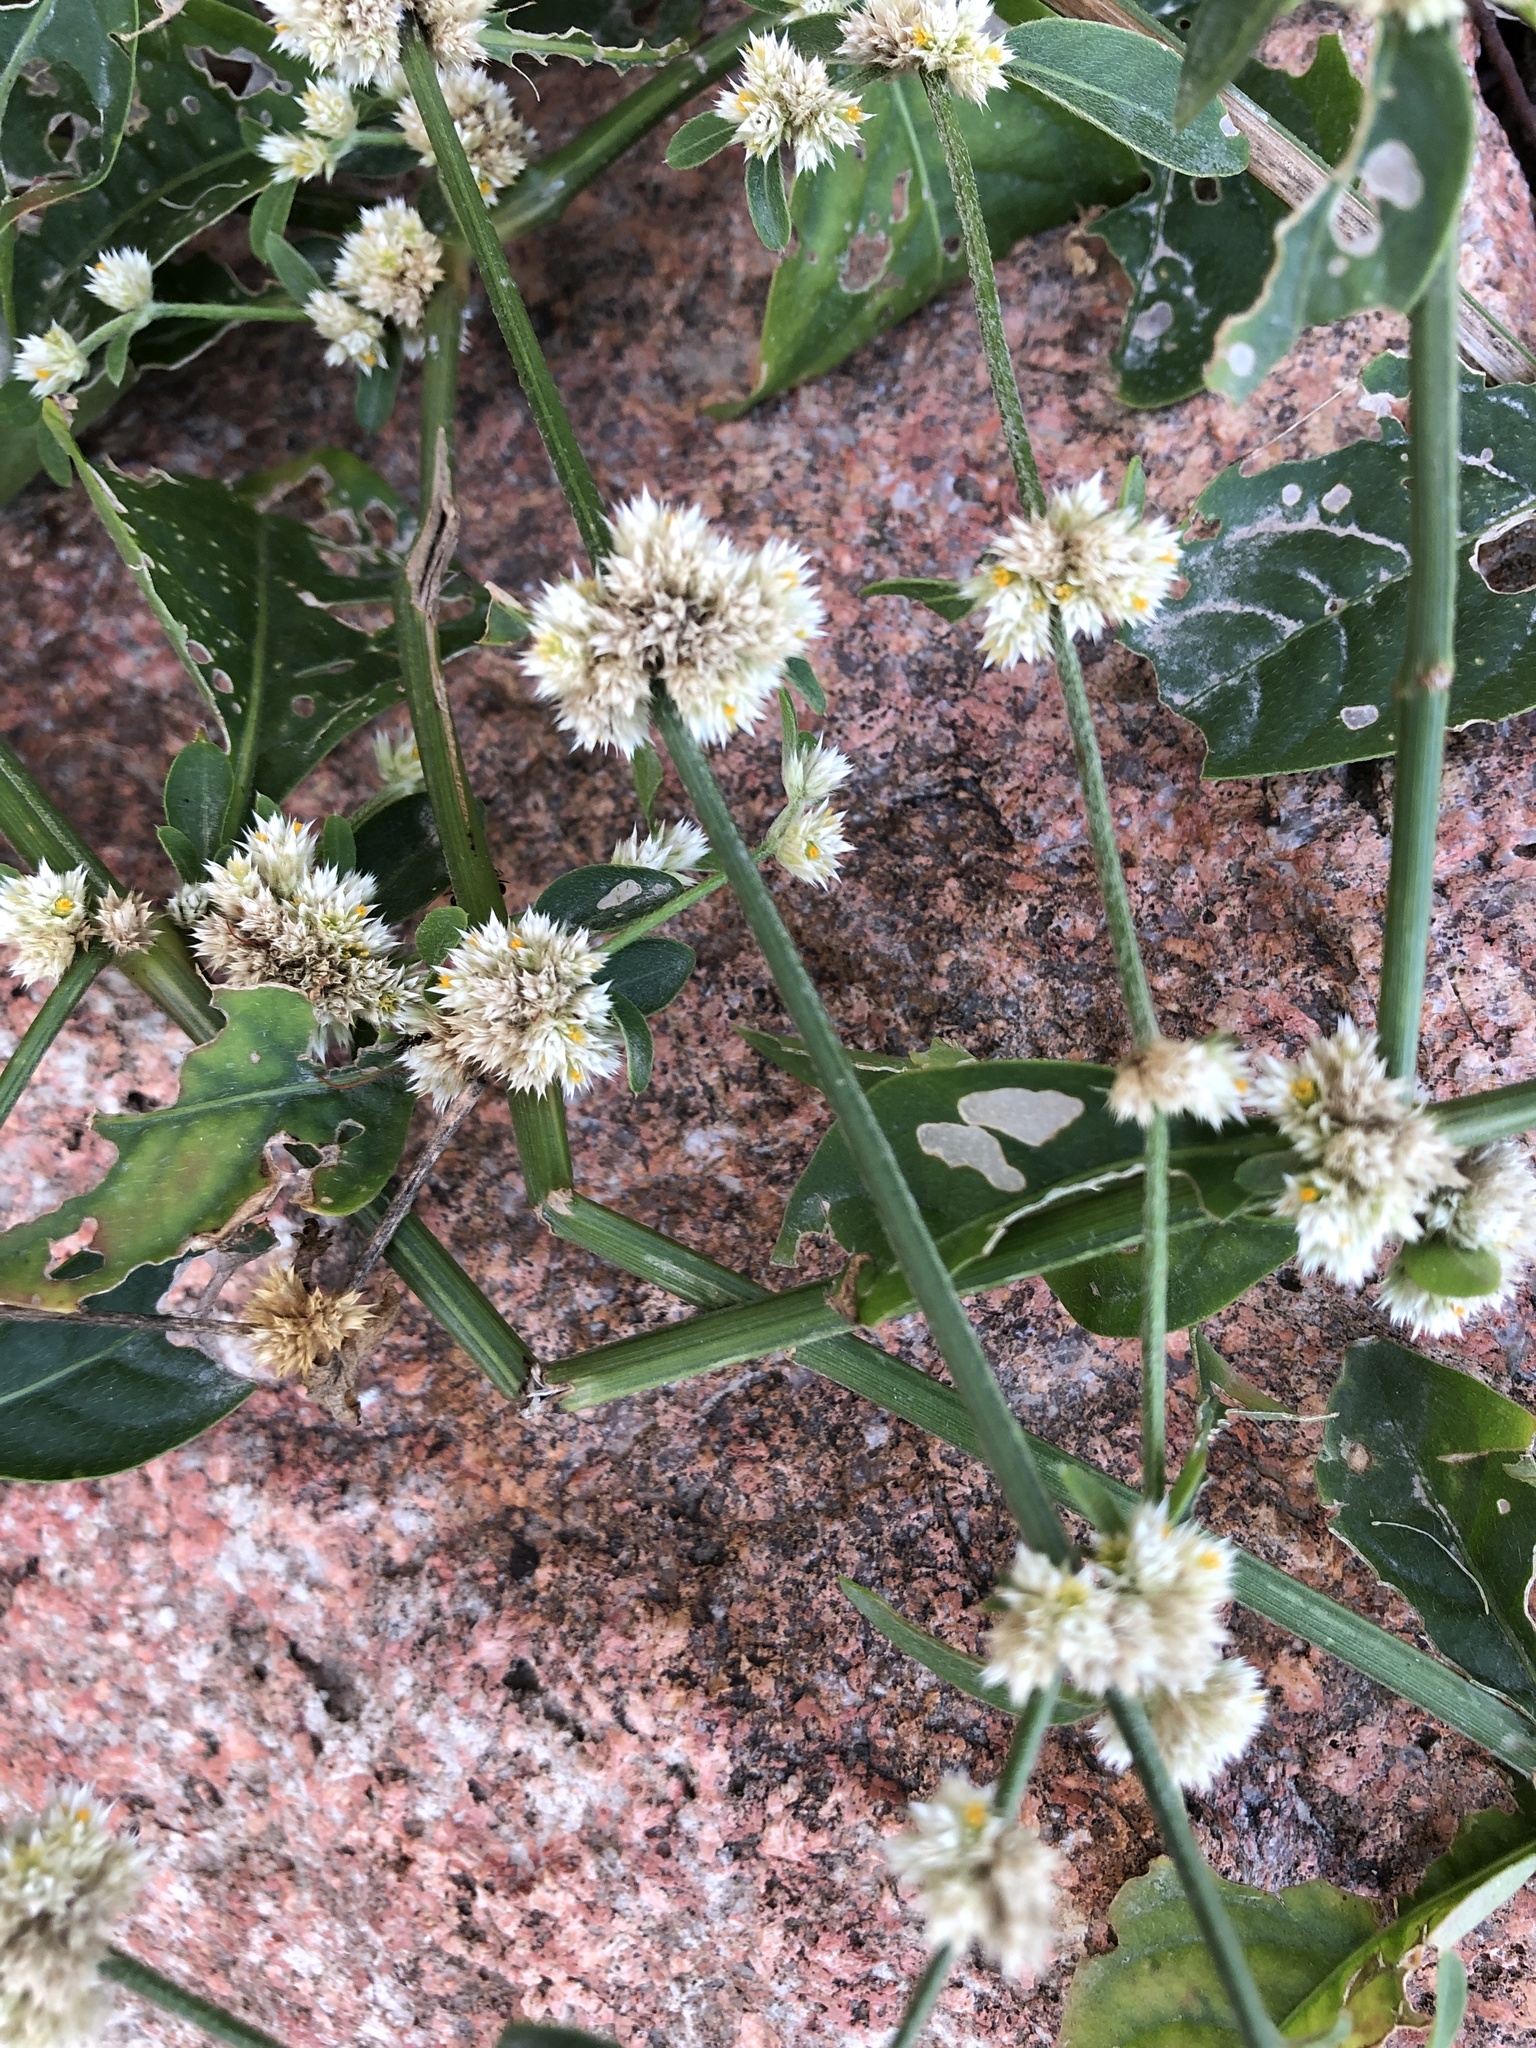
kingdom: Plantae
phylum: Tracheophyta
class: Magnoliopsida
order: Caryophyllales
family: Amaranthaceae
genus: Alternanthera
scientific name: Alternanthera ficoidea
